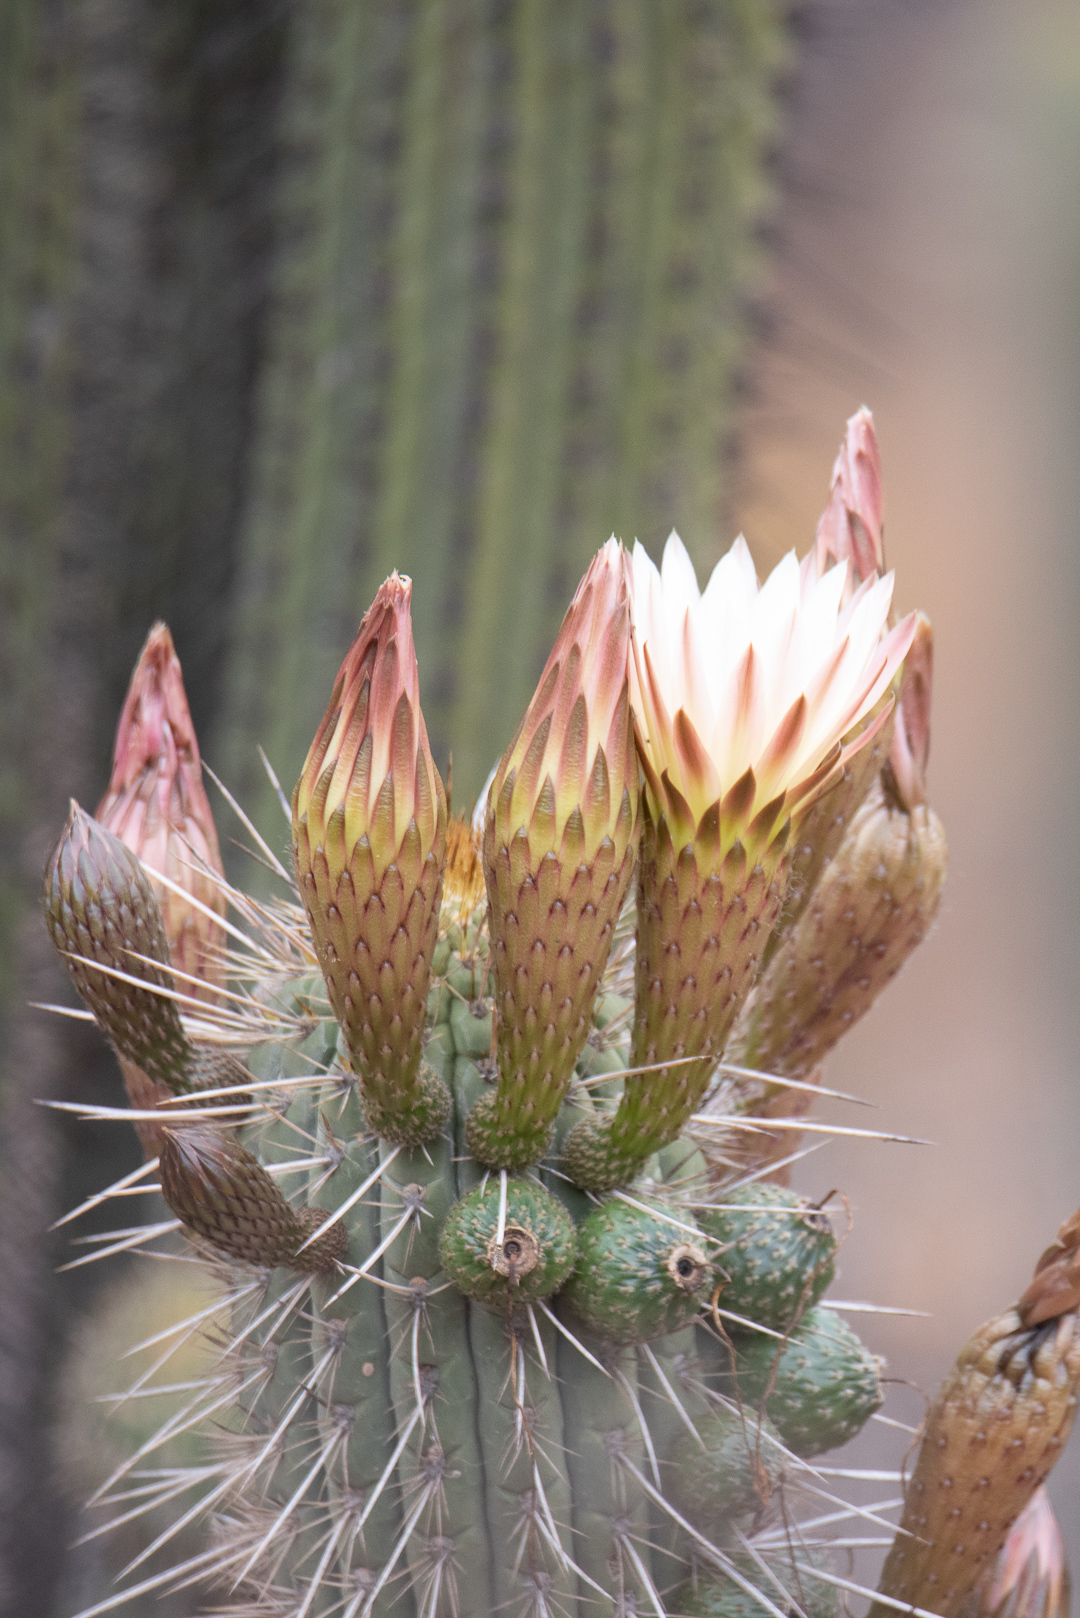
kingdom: Plantae
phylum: Tracheophyta
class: Magnoliopsida
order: Caryophyllales
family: Cactaceae
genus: Leucostele
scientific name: Leucostele chiloensis
